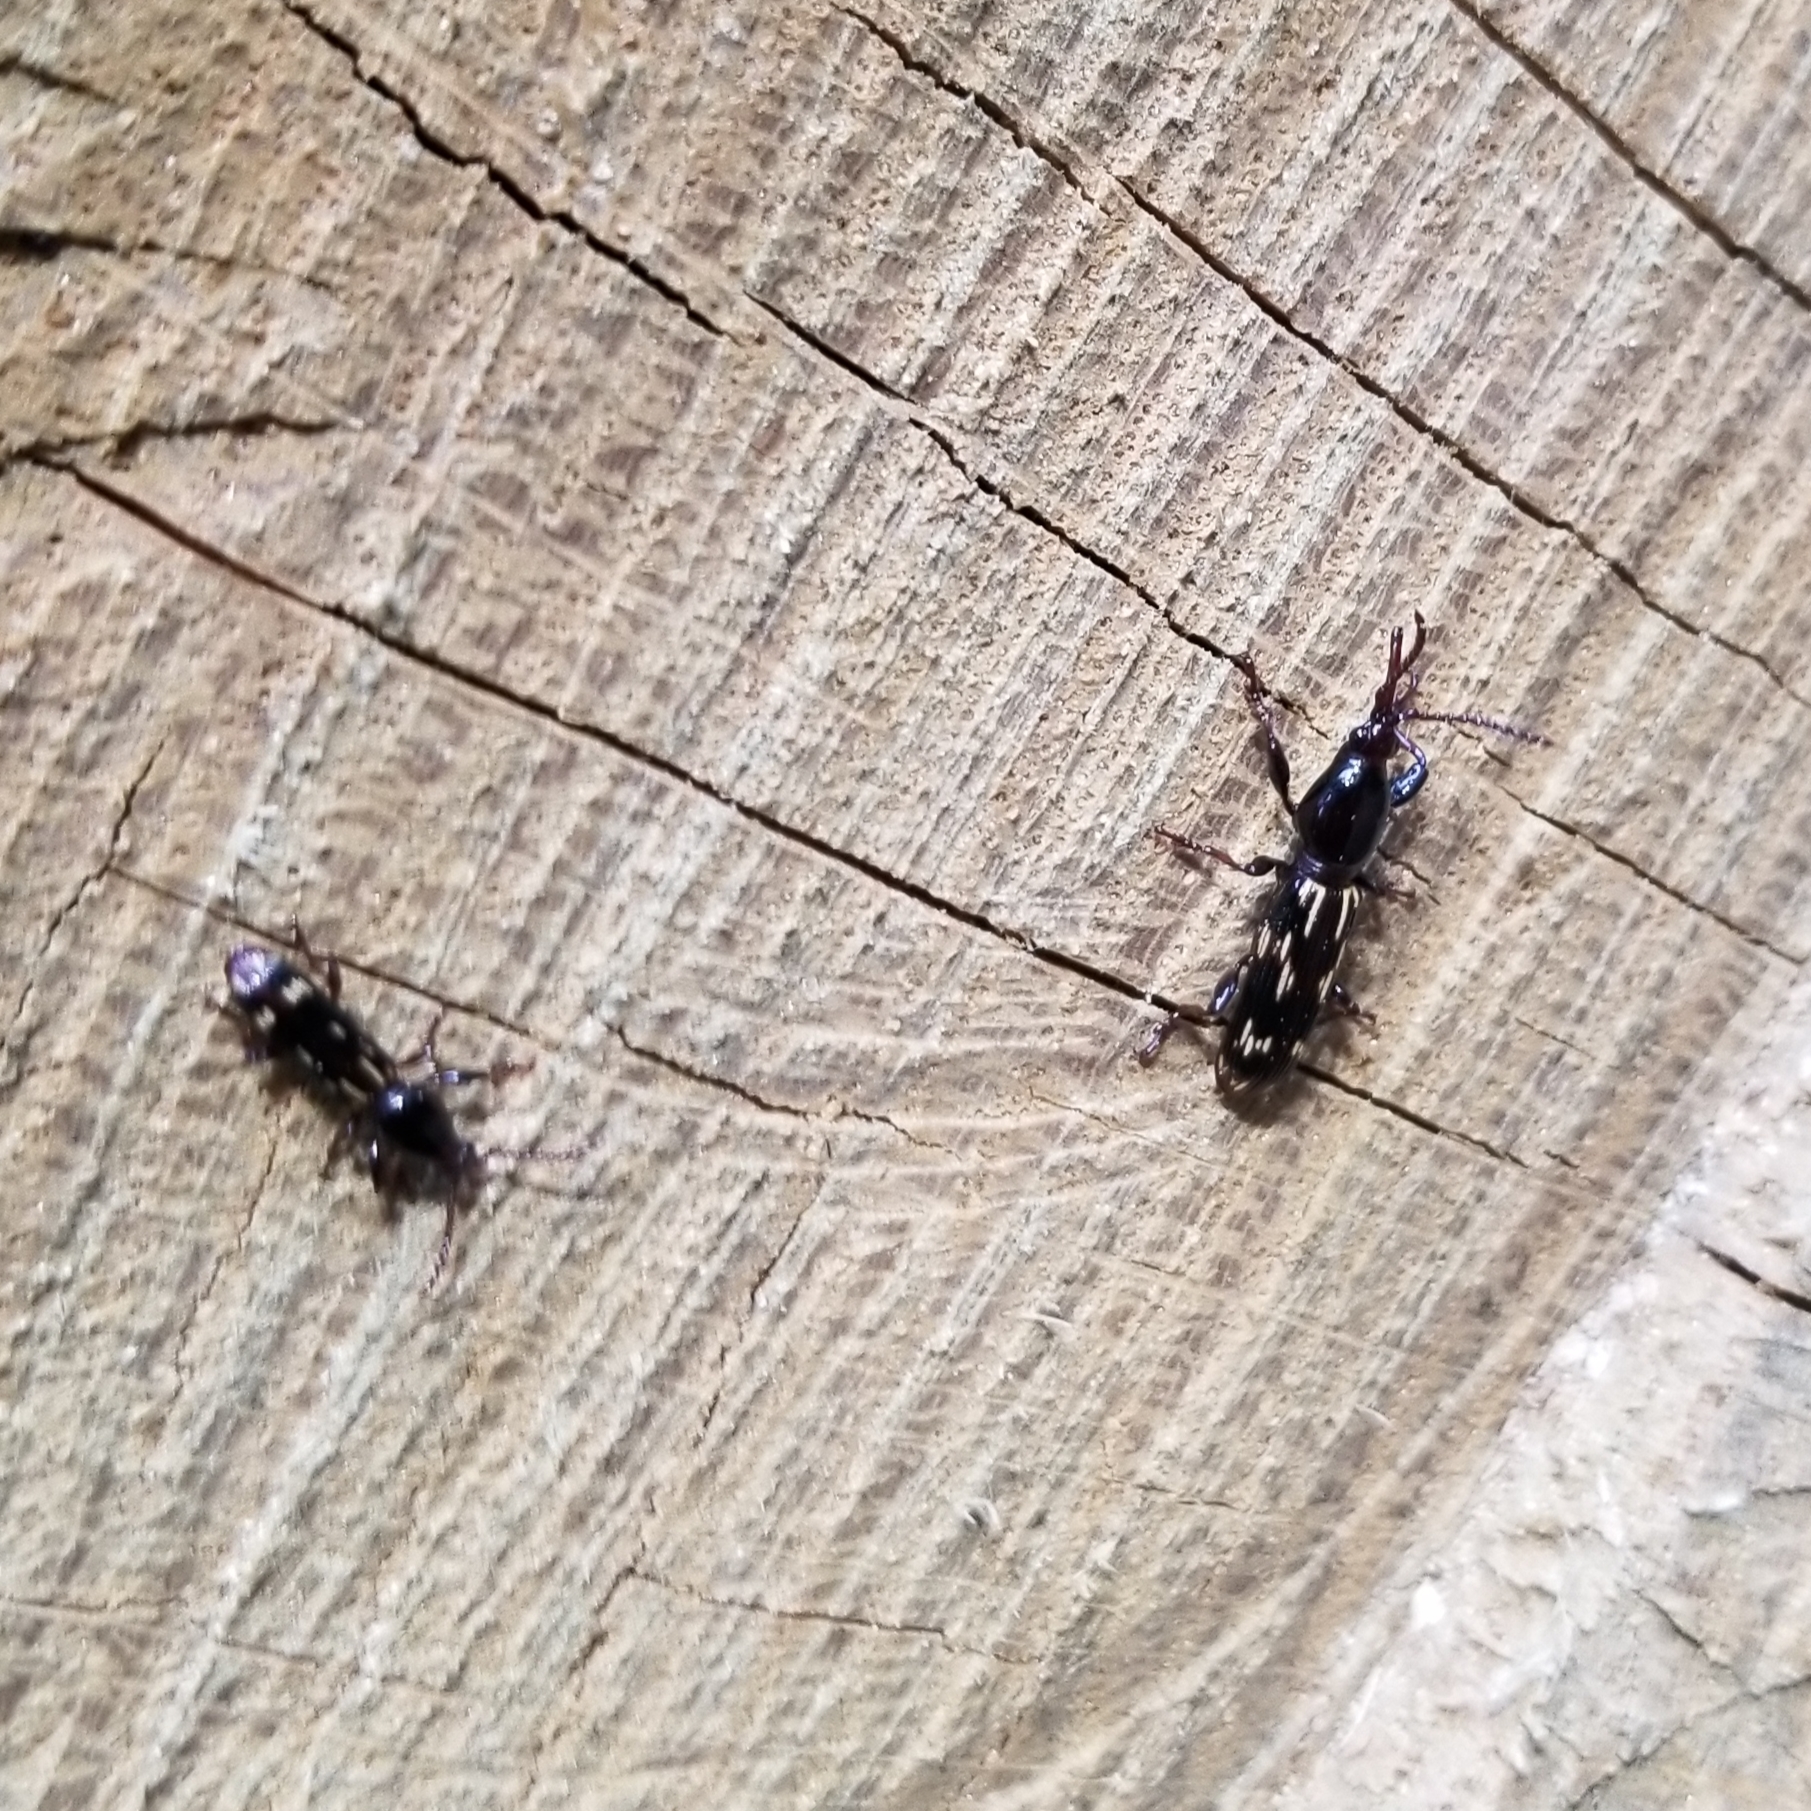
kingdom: Animalia
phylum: Arthropoda
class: Insecta
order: Coleoptera
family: Brentidae
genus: Arrenodes
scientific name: Arrenodes minutus
